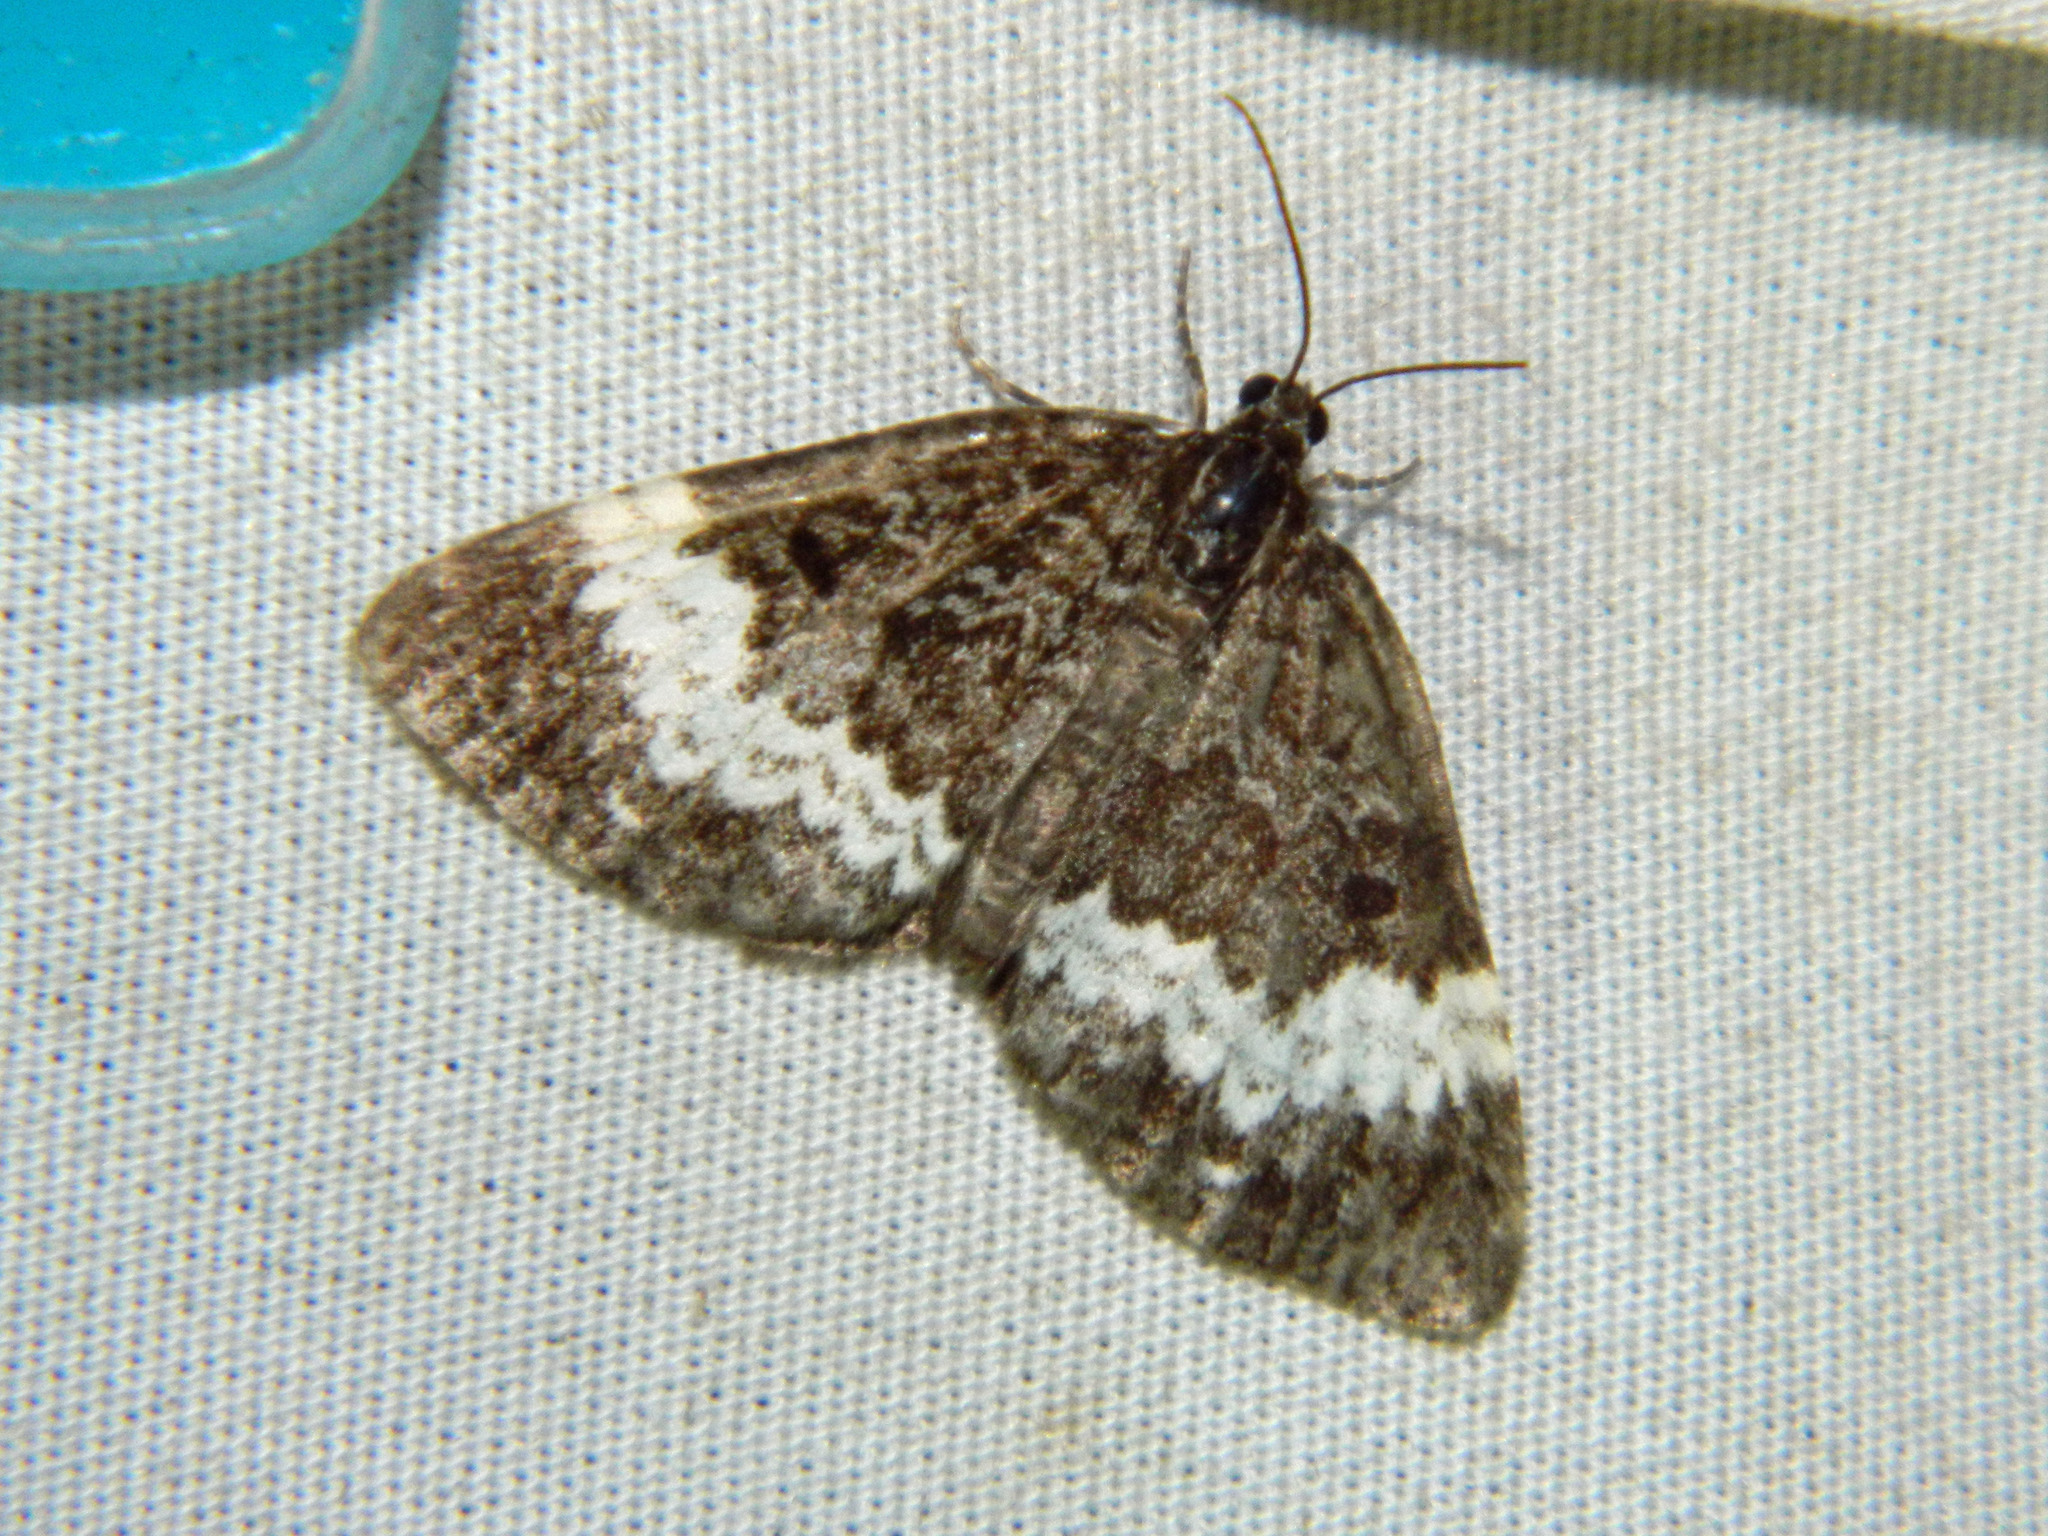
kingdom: Animalia
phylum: Arthropoda
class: Insecta
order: Lepidoptera
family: Geometridae
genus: Spargania
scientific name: Spargania luctuata
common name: White-banded carpet
